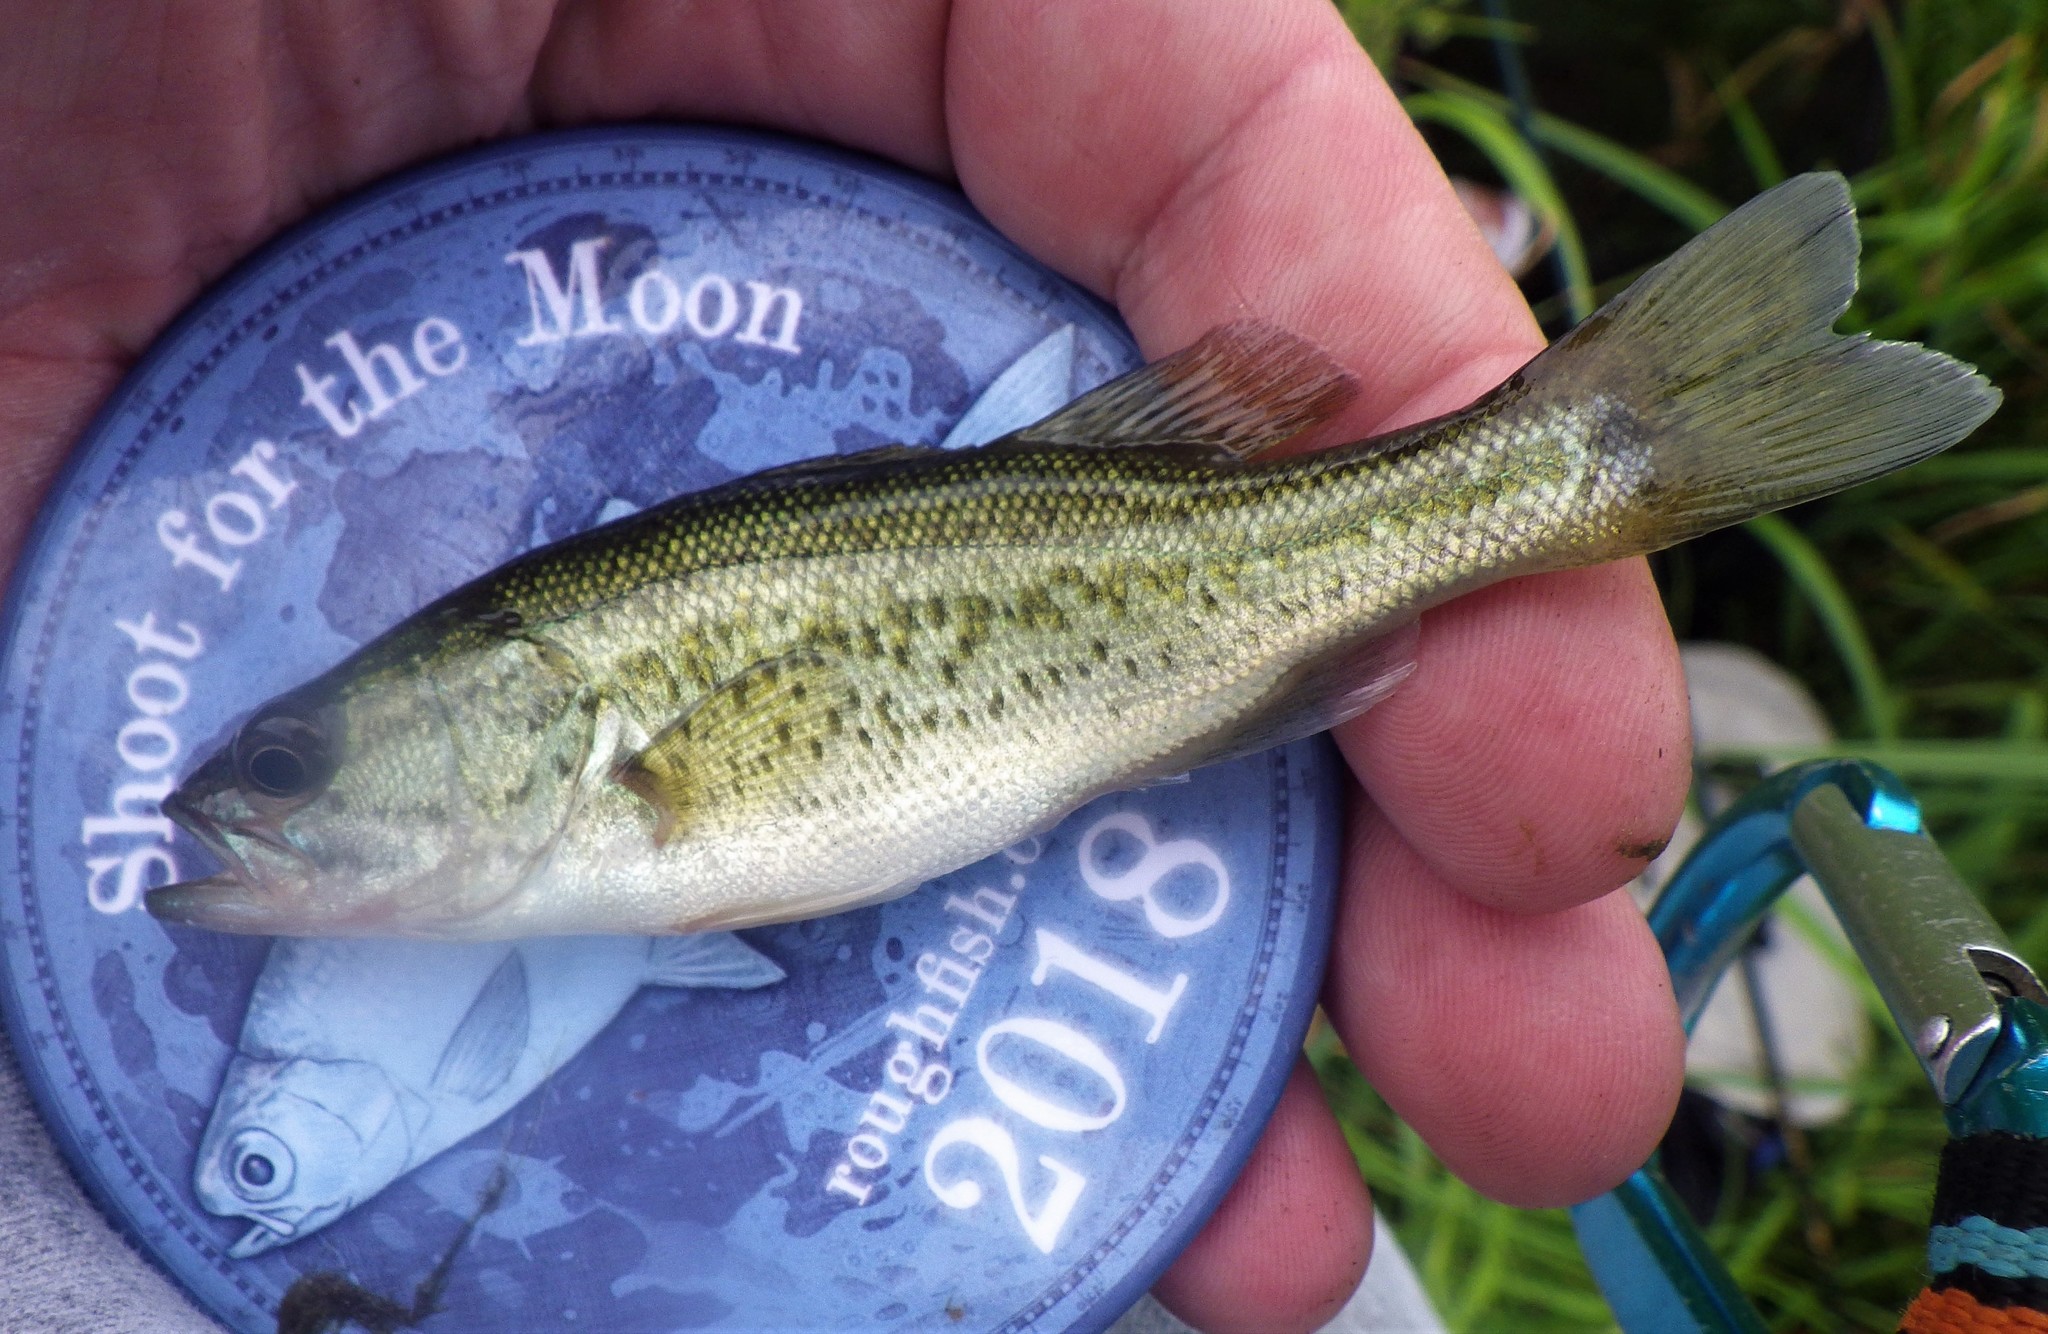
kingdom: Animalia
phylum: Chordata
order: Perciformes
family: Centrarchidae
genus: Micropterus
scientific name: Micropterus
